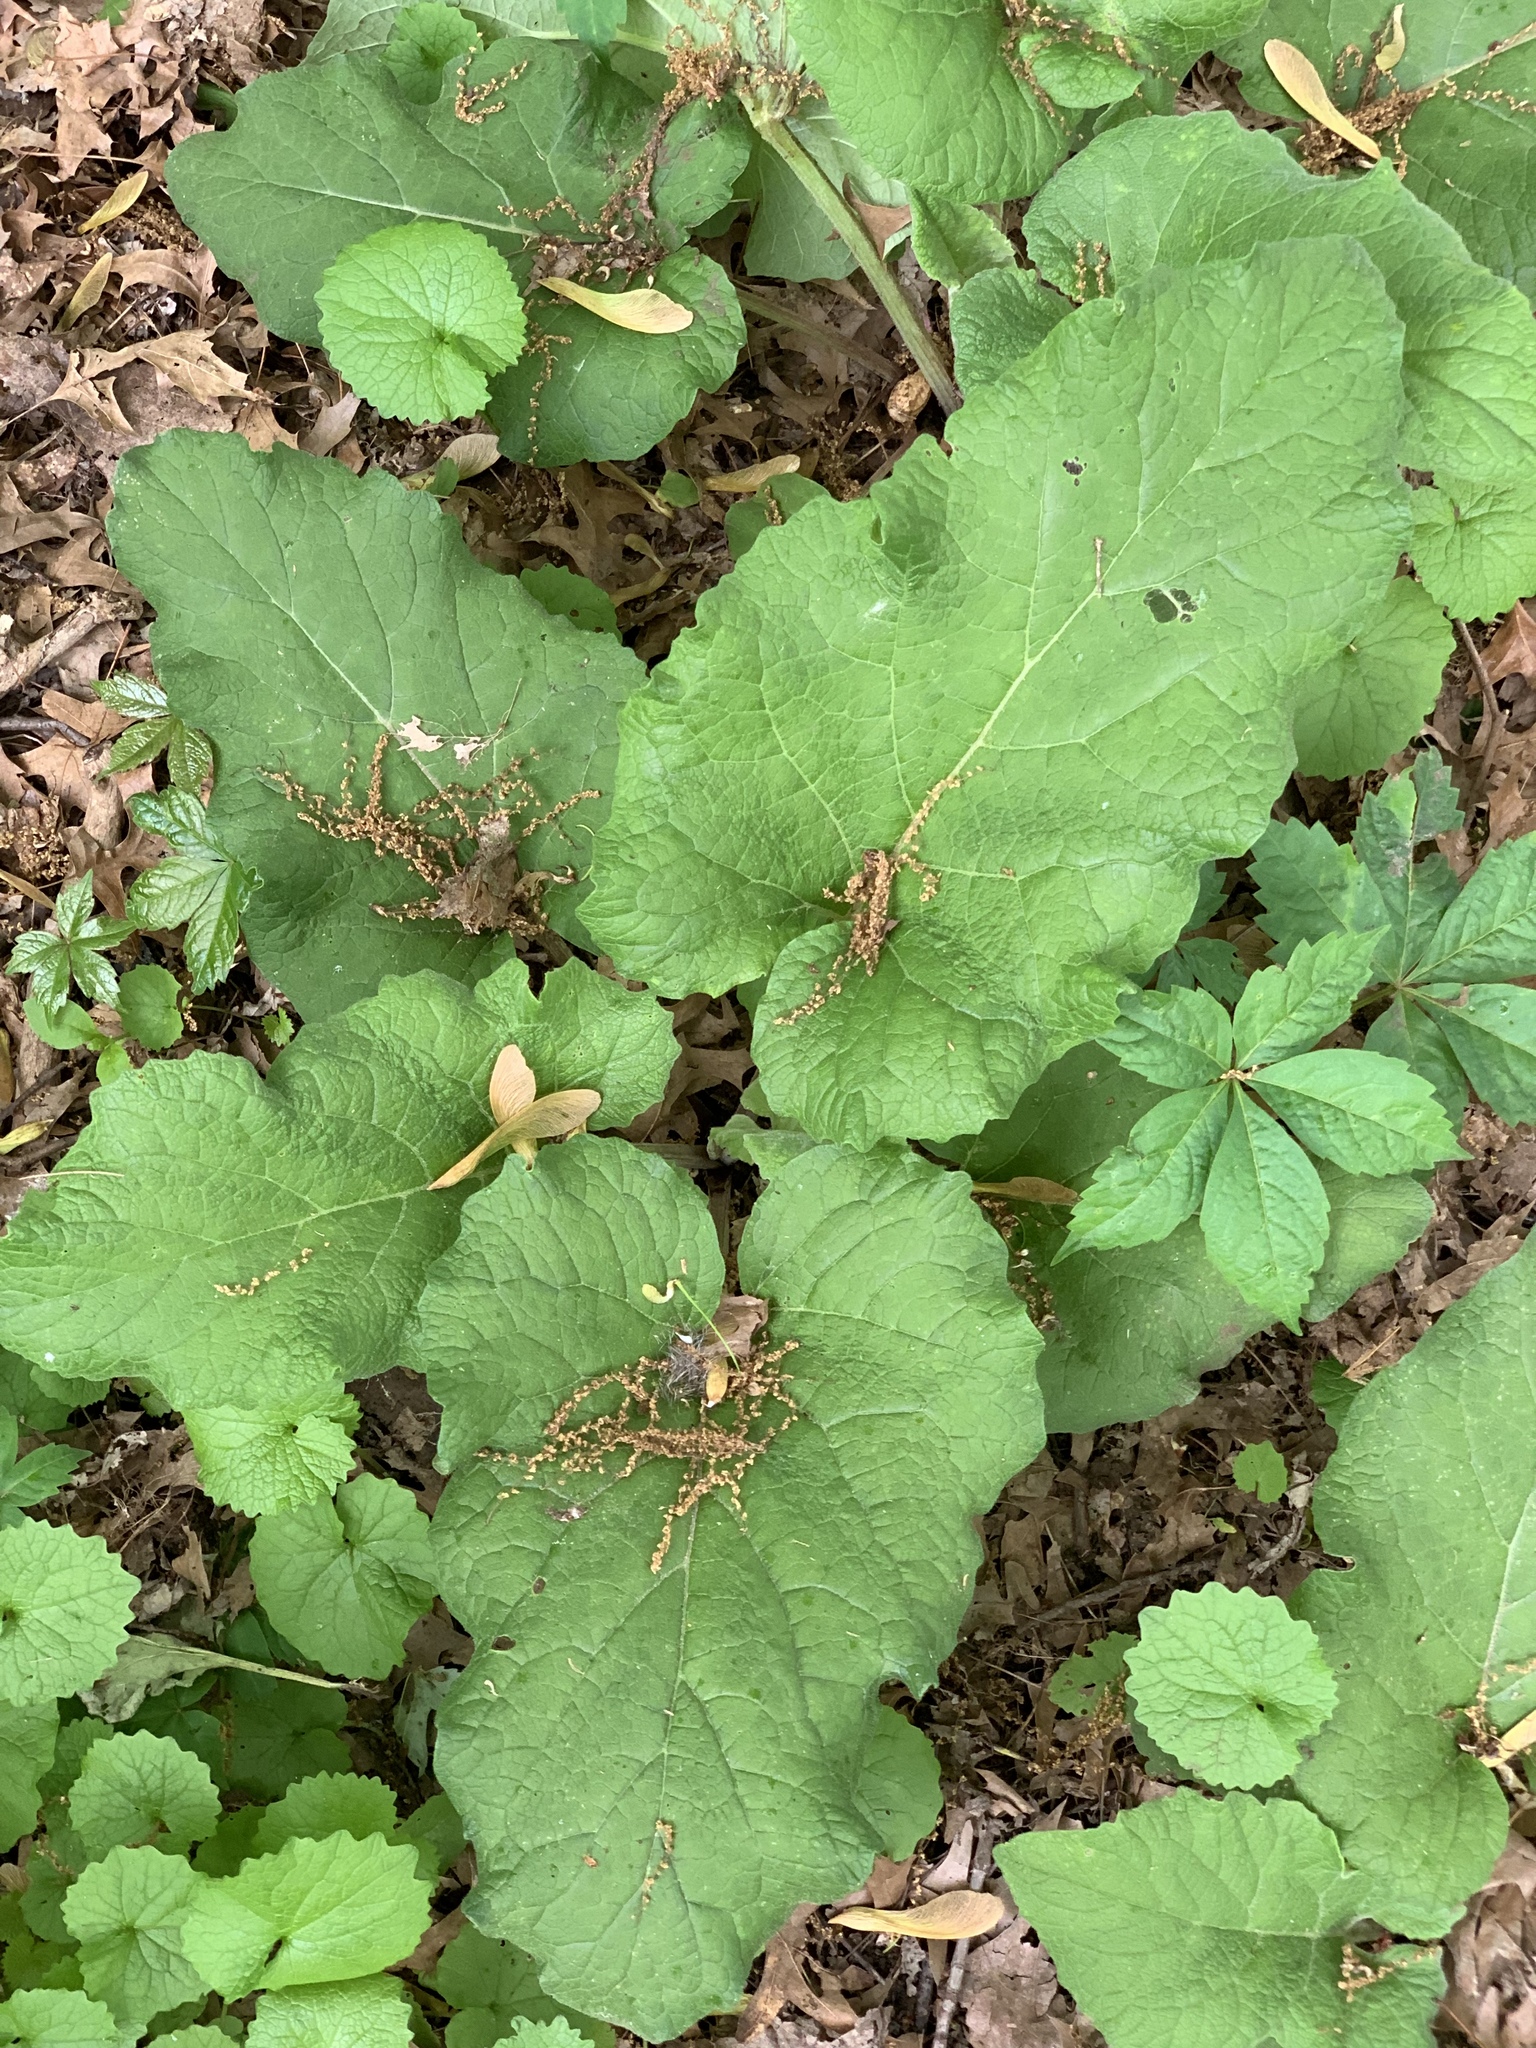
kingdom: Plantae
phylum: Tracheophyta
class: Magnoliopsida
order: Asterales
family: Asteraceae
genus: Arctium
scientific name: Arctium
